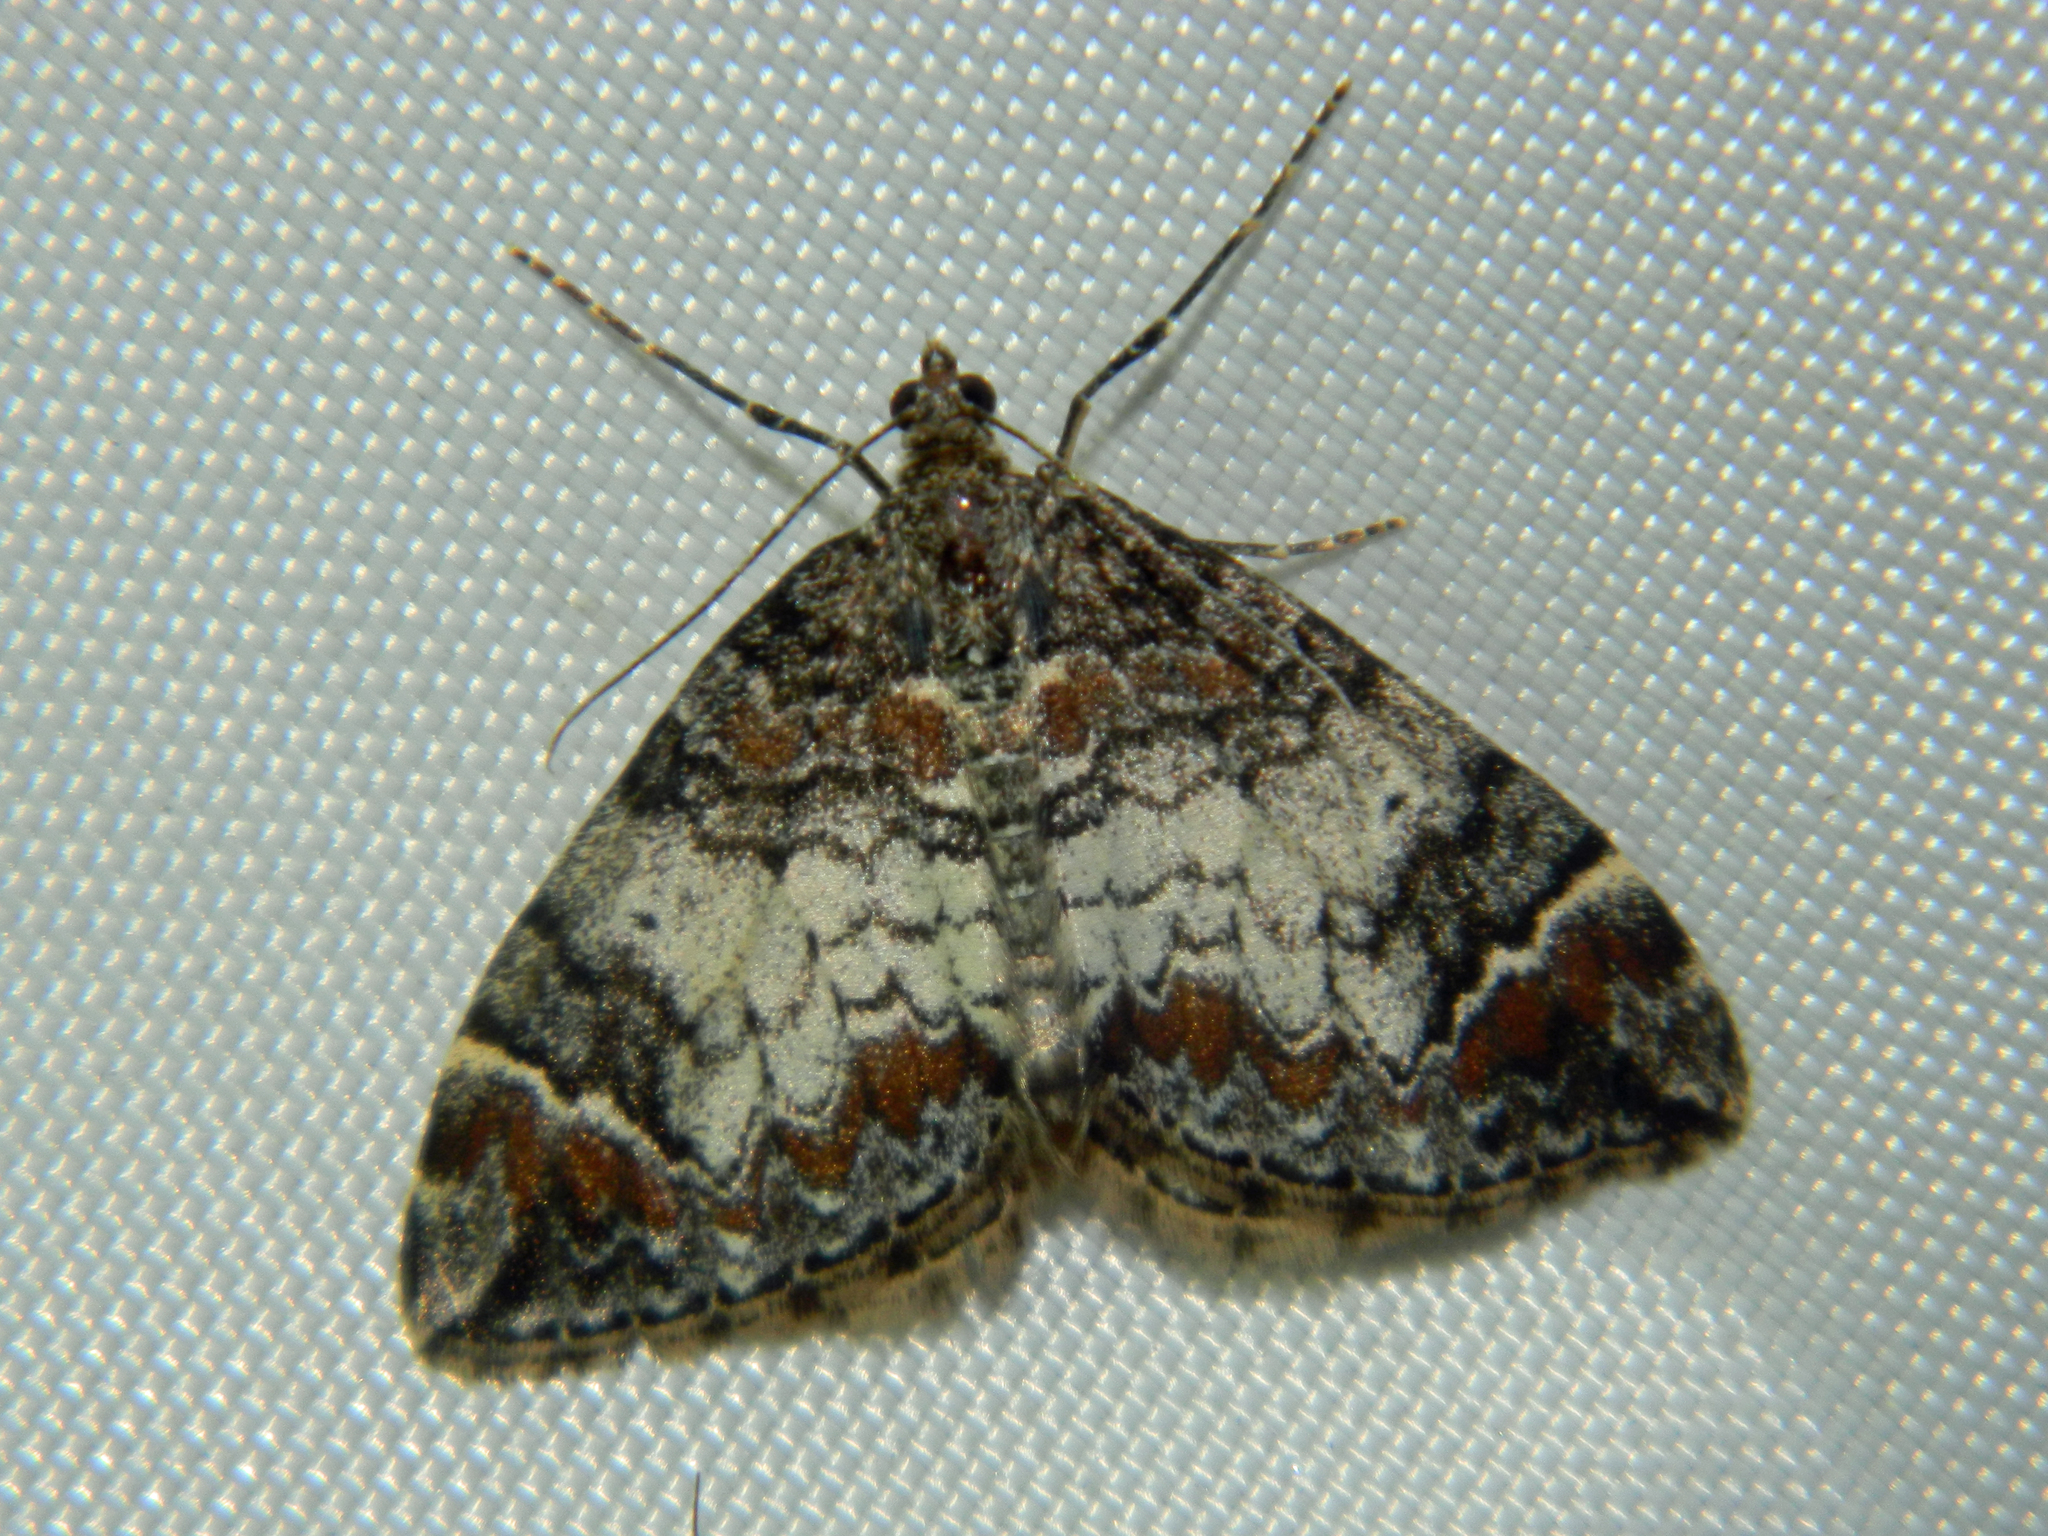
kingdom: Animalia
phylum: Arthropoda
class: Insecta
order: Lepidoptera
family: Geometridae
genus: Dysstroma
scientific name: Dysstroma truncata
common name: Common marbled carpet
